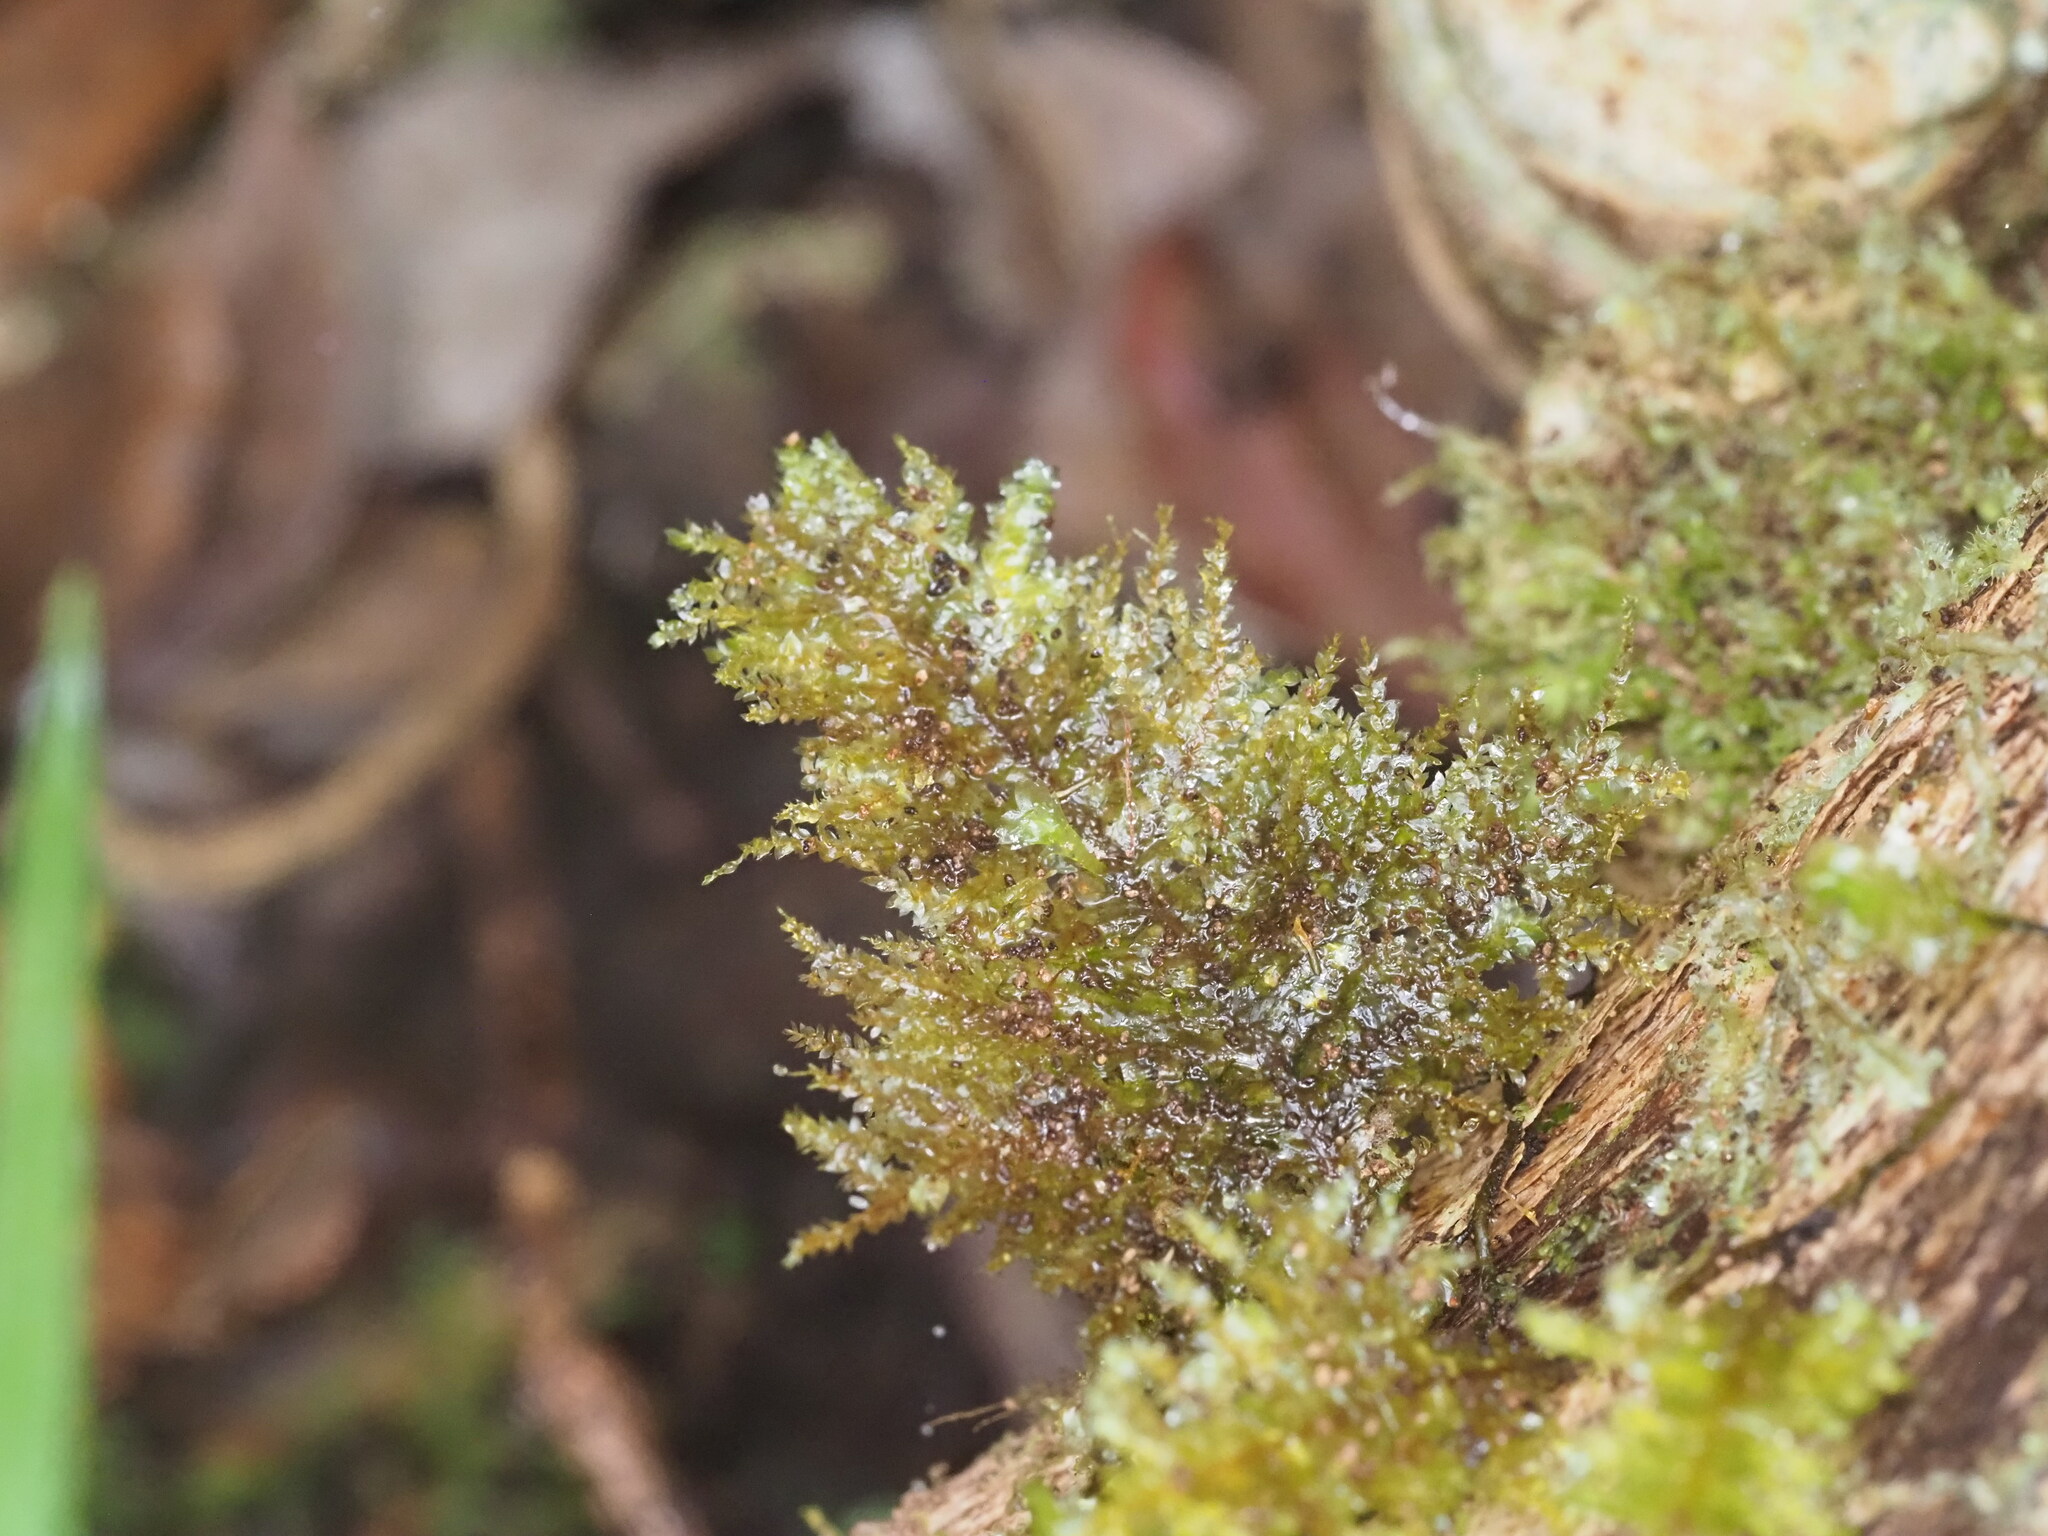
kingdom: Plantae
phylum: Bryophyta
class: Bryopsida
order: Hypnales
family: Neckeraceae
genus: Homaliodendron
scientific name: Homaliodendron flabellatum
